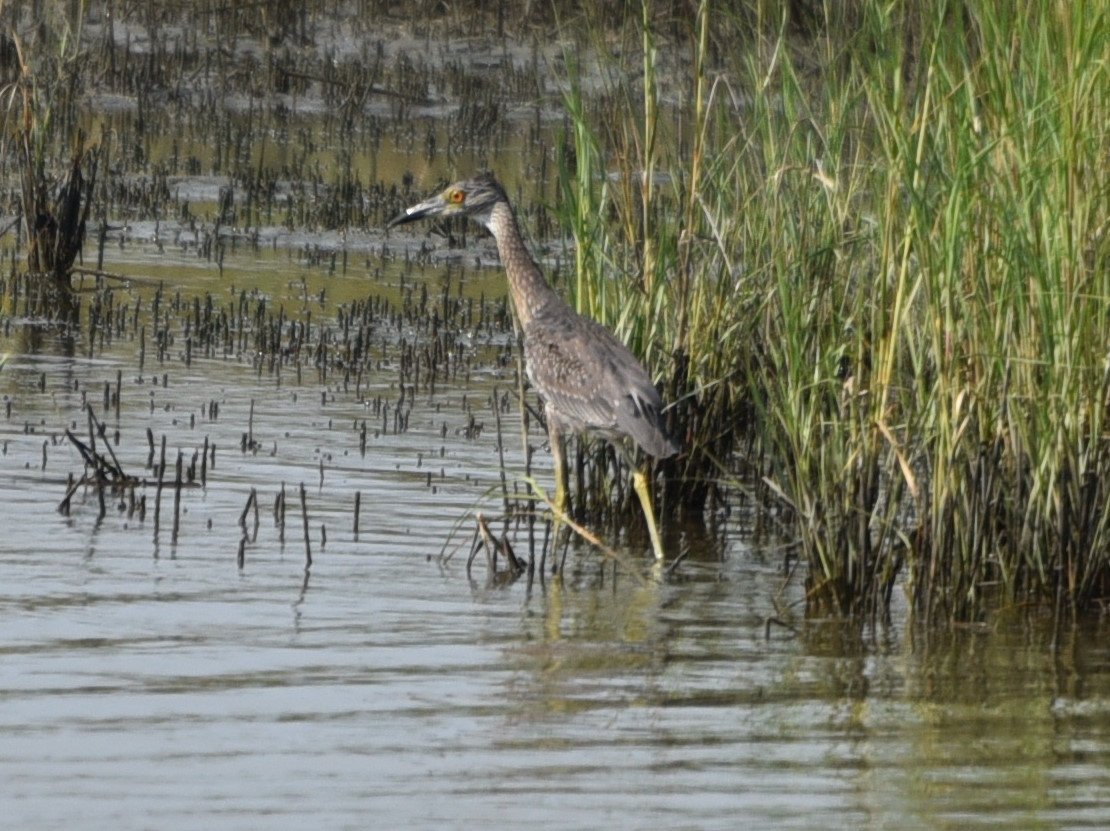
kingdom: Animalia
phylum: Chordata
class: Aves
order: Pelecaniformes
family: Ardeidae
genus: Nyctanassa
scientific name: Nyctanassa violacea
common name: Yellow-crowned night heron
